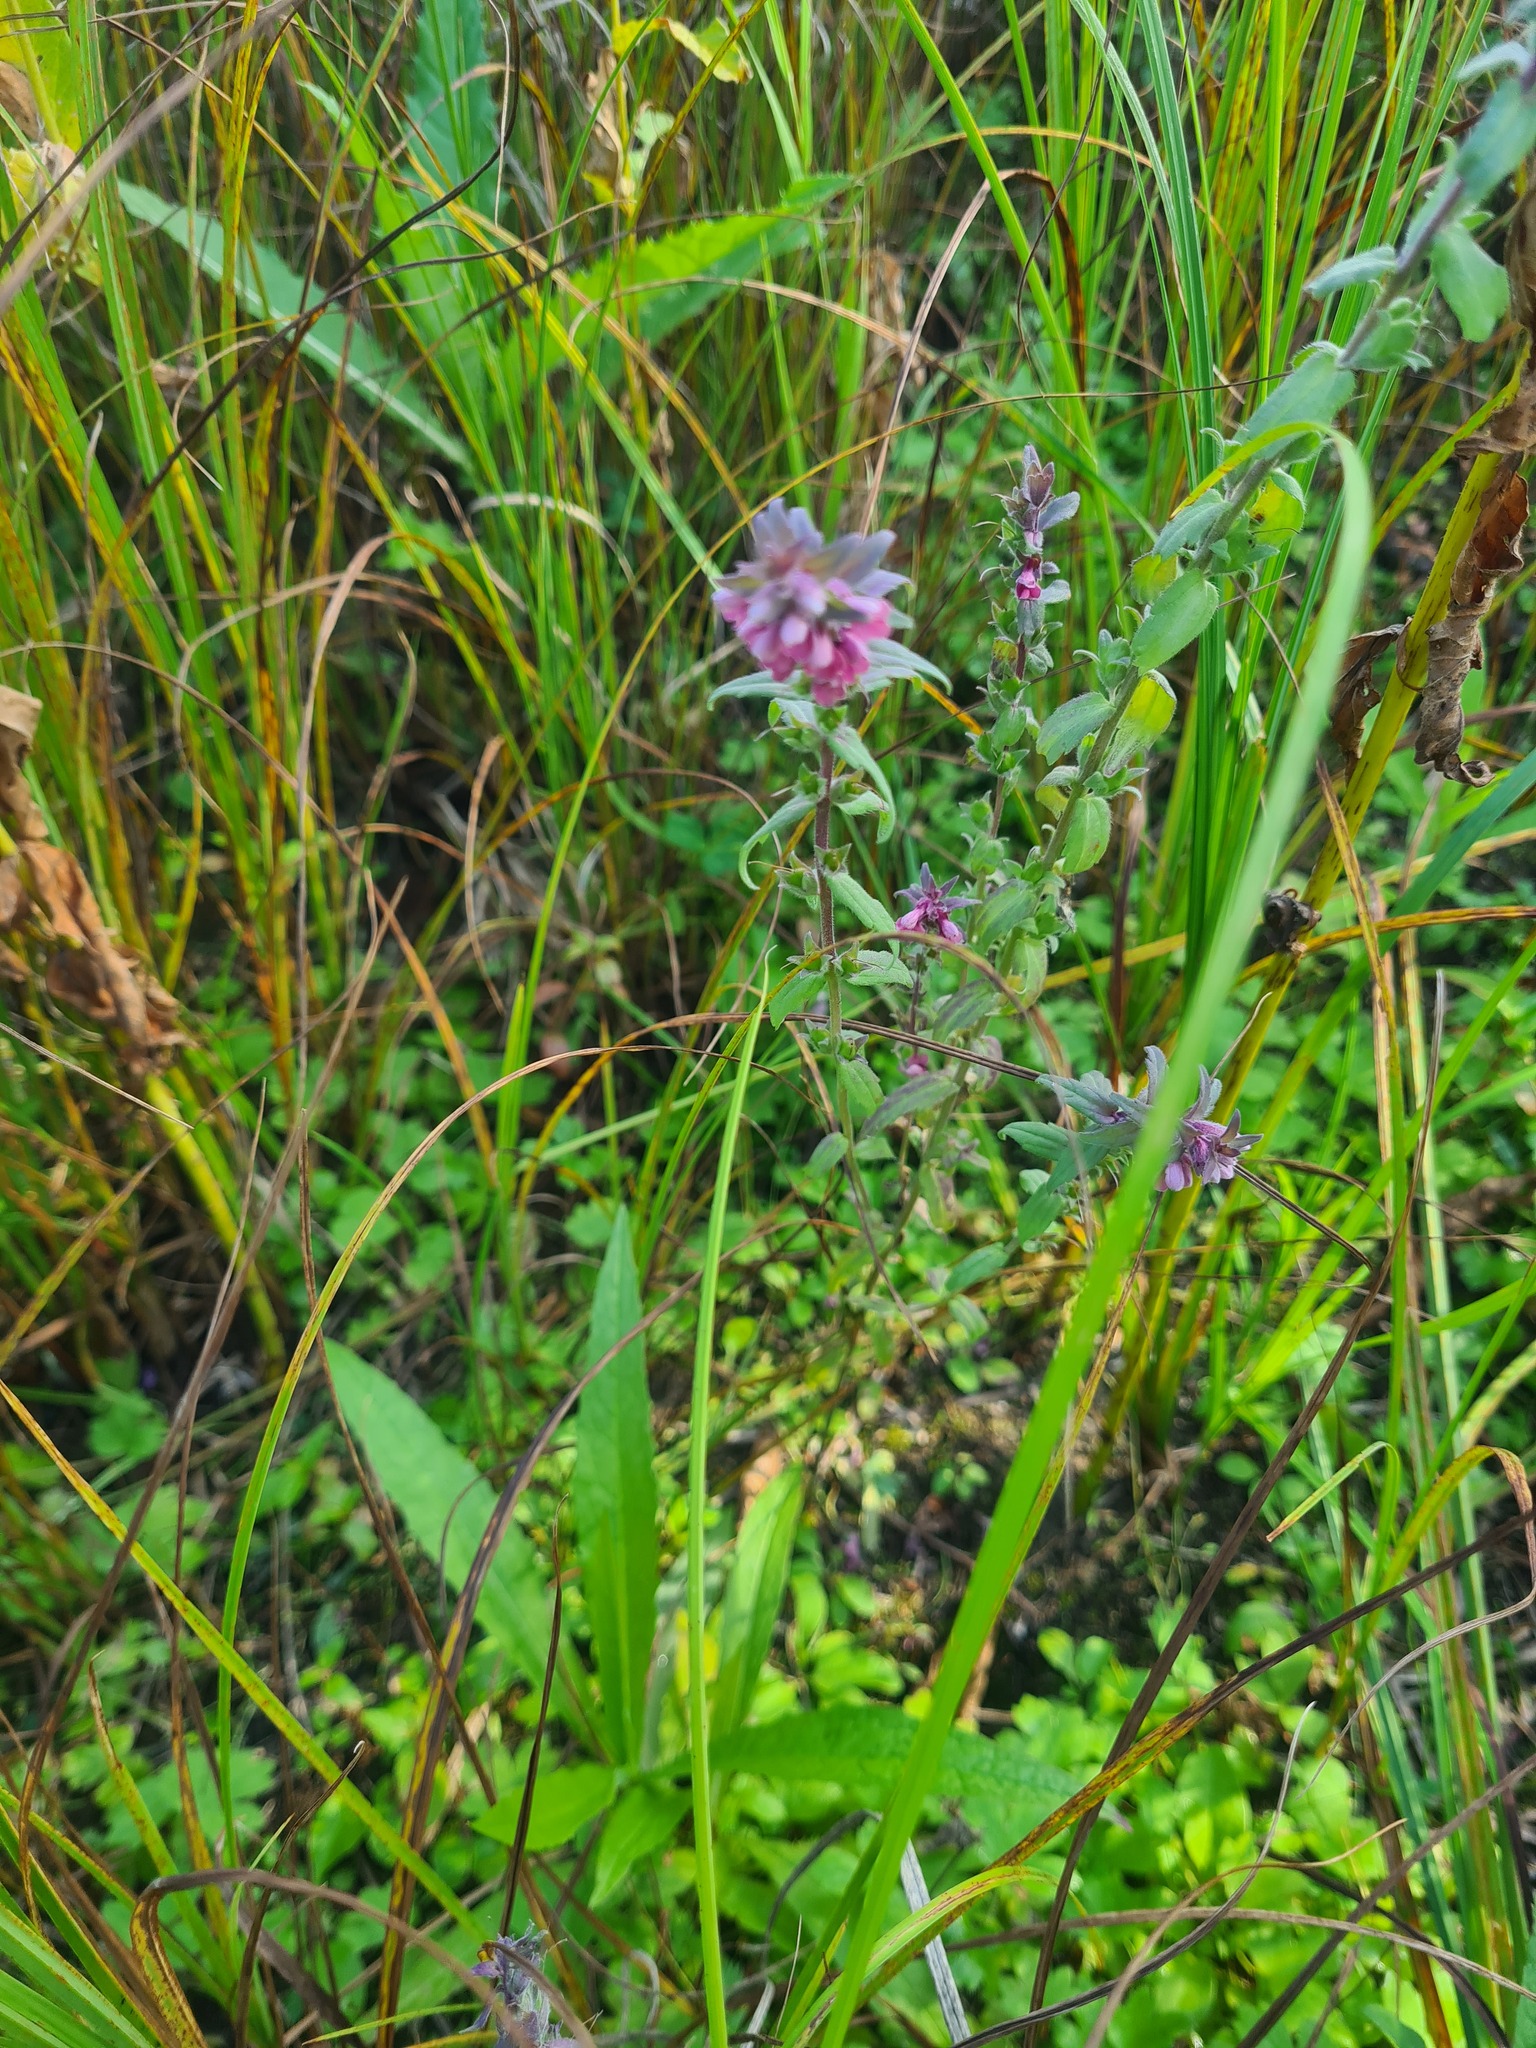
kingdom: Plantae
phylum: Tracheophyta
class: Magnoliopsida
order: Lamiales
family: Orobanchaceae
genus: Odontites
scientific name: Odontites vulgaris
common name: Broomrape
